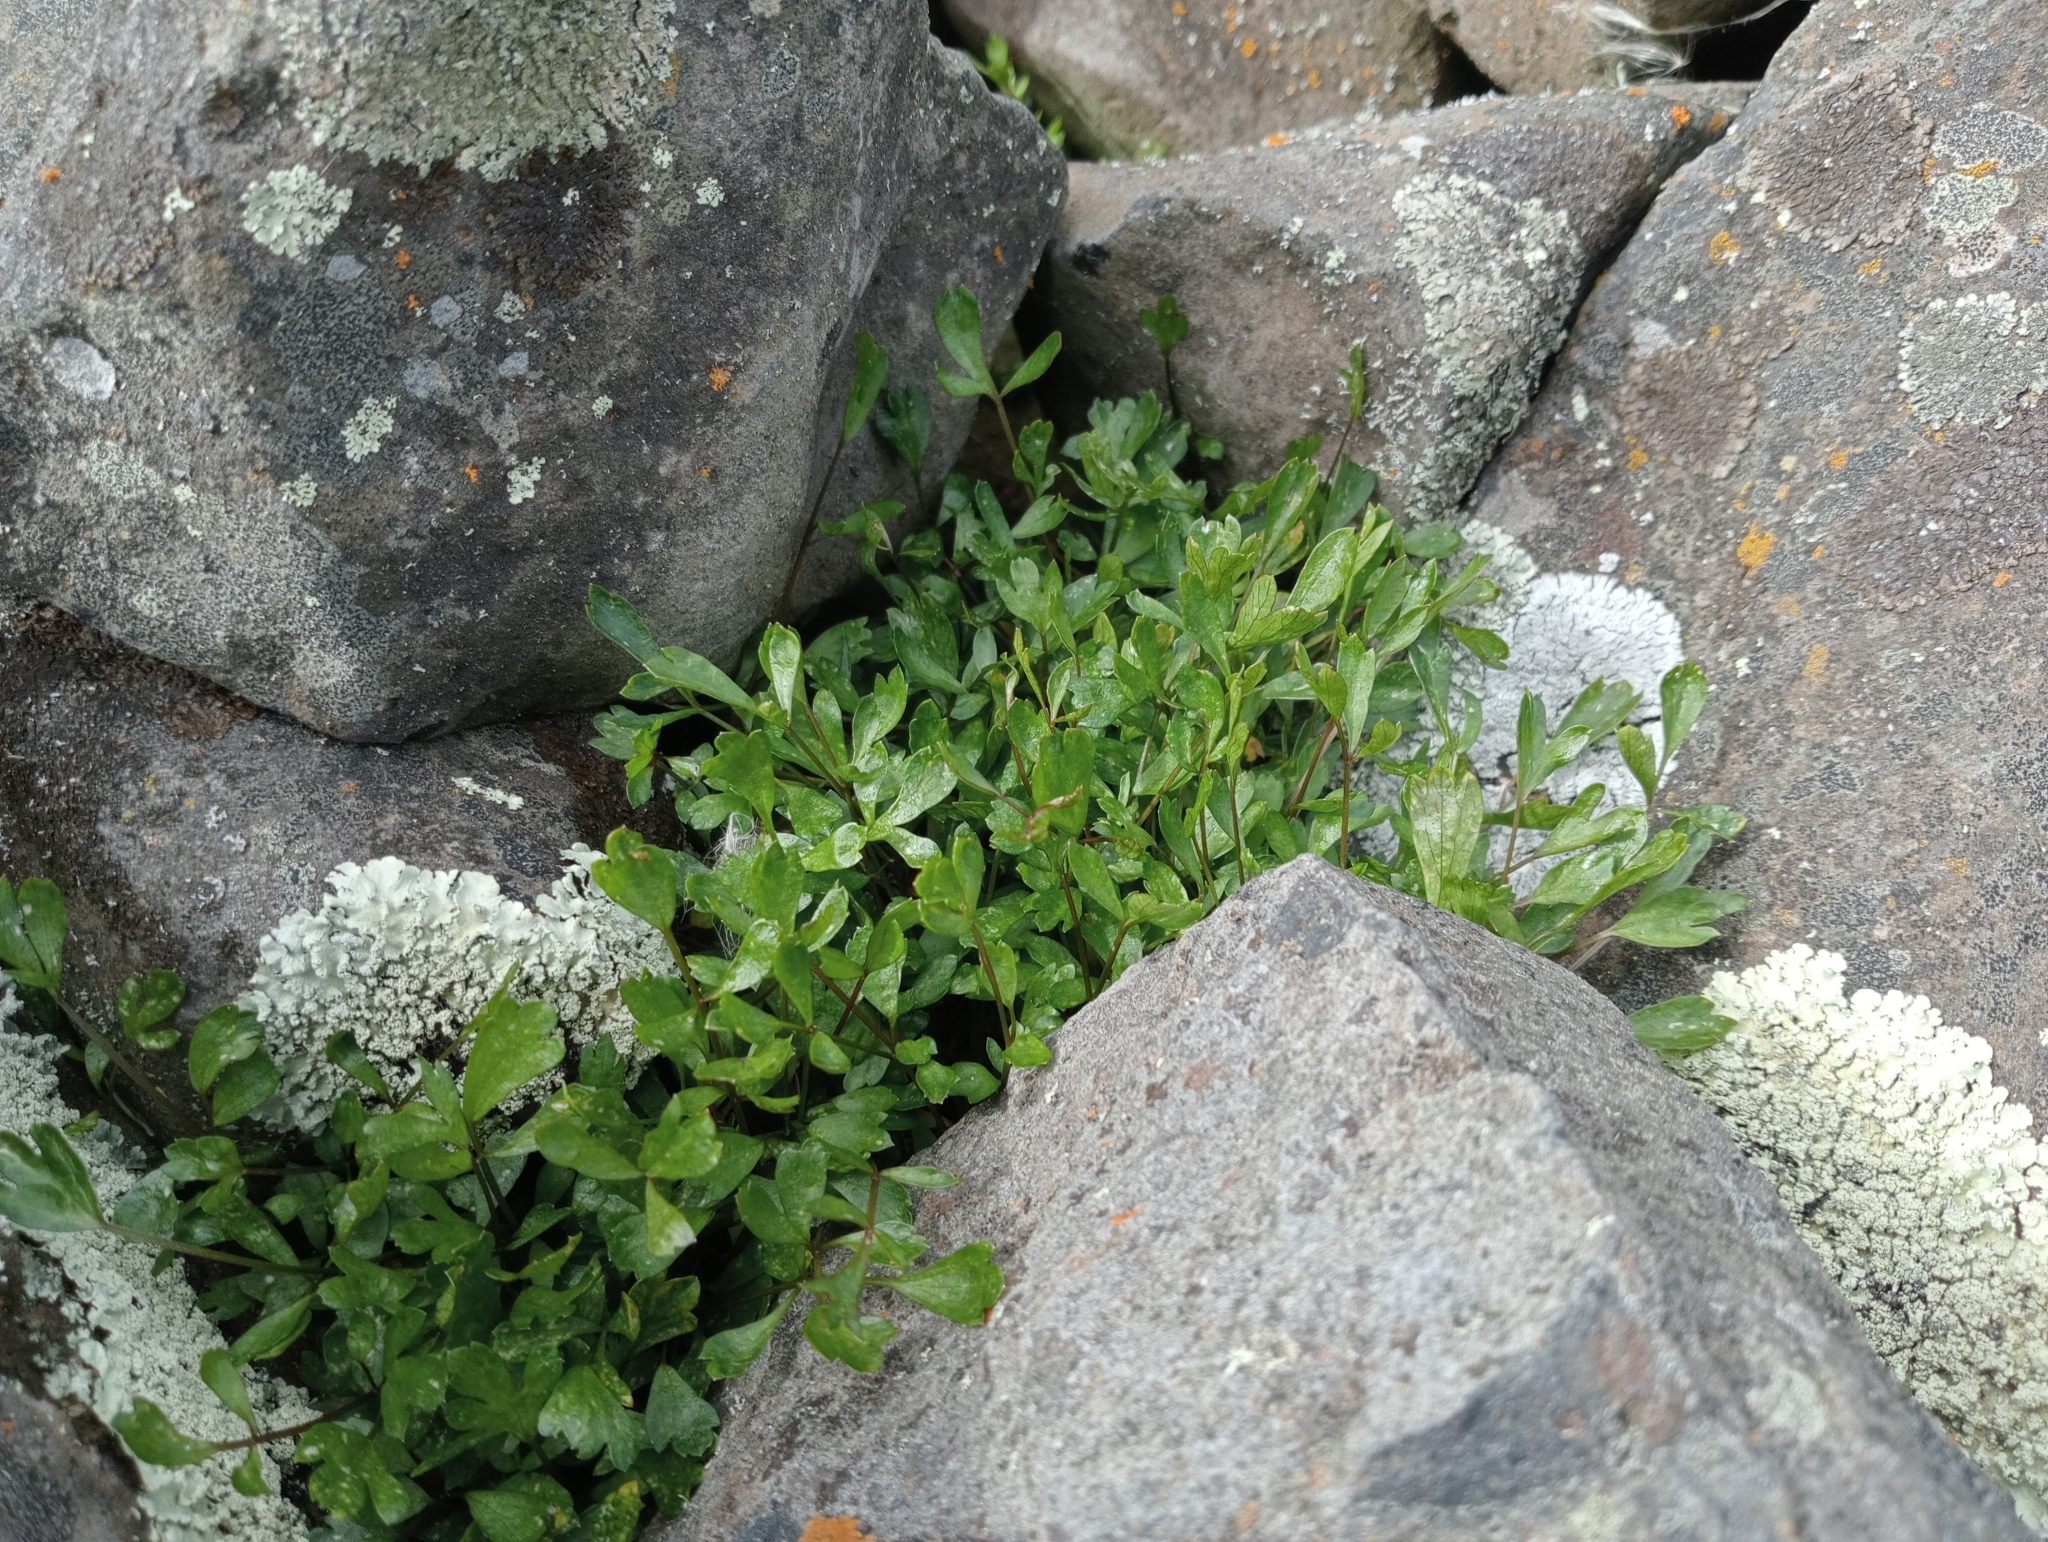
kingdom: Plantae
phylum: Tracheophyta
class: Magnoliopsida
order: Apiales
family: Apiaceae
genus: Apium
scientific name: Apium prostratum
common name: Prostrate marshwort
